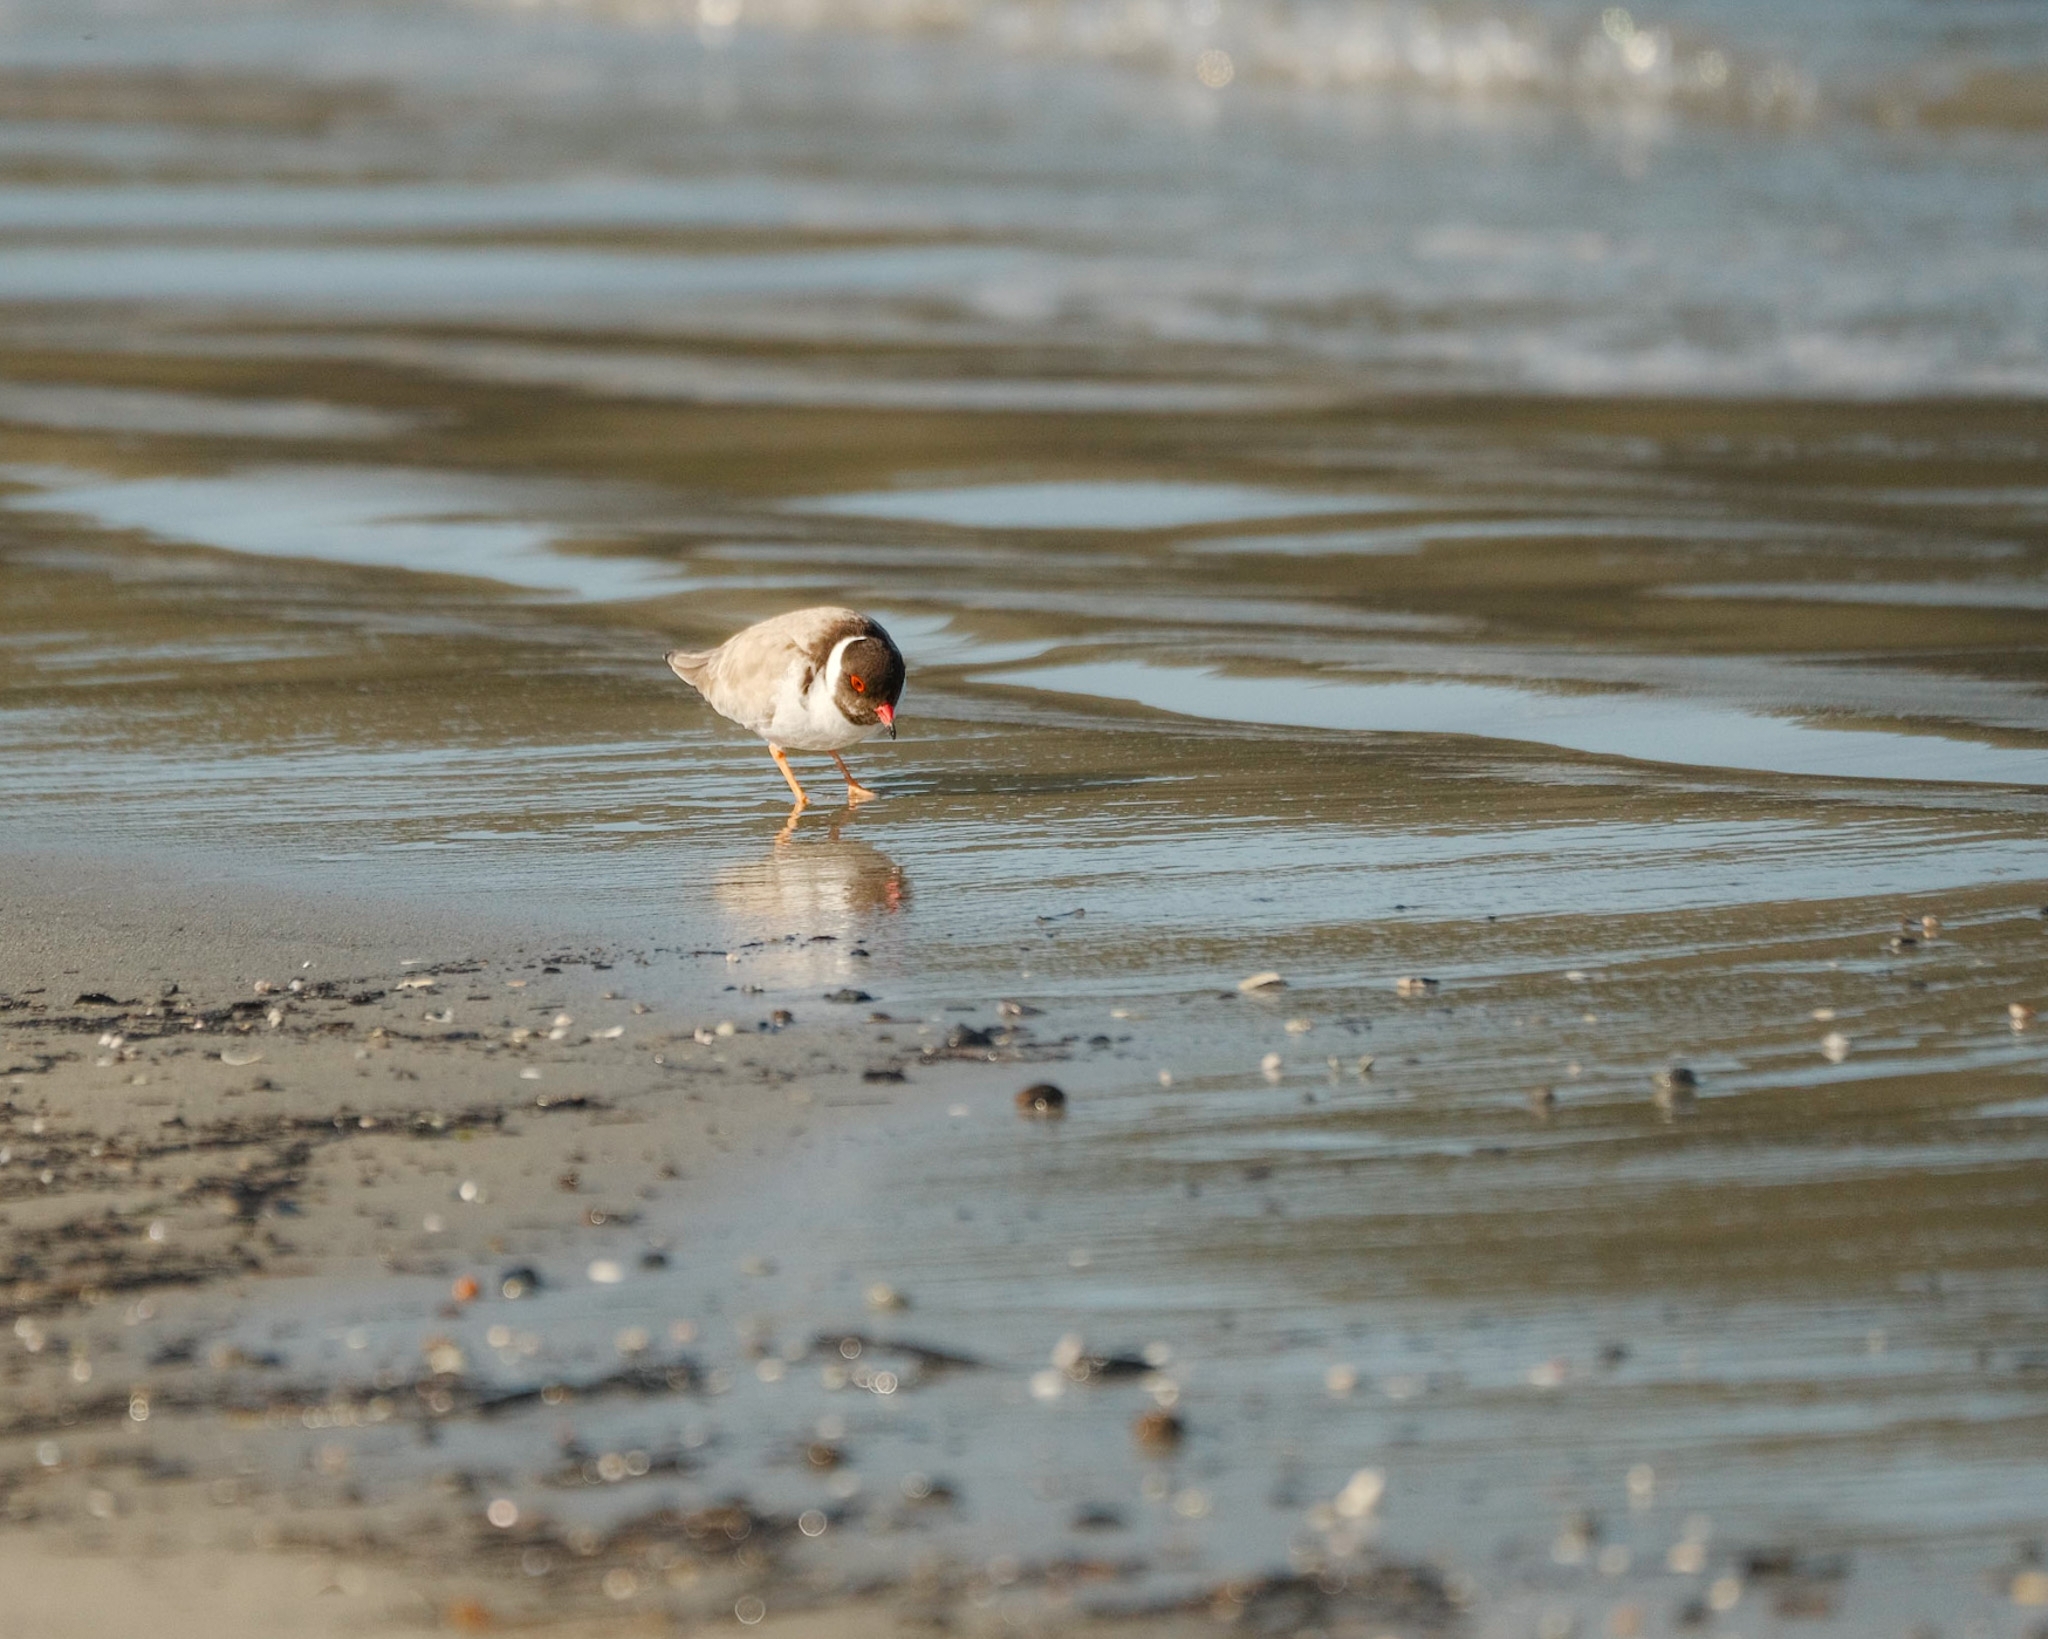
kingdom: Animalia
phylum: Chordata
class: Aves
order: Charadriiformes
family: Charadriidae
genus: Thinornis
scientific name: Thinornis cucullatus
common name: Hooded dotterel
